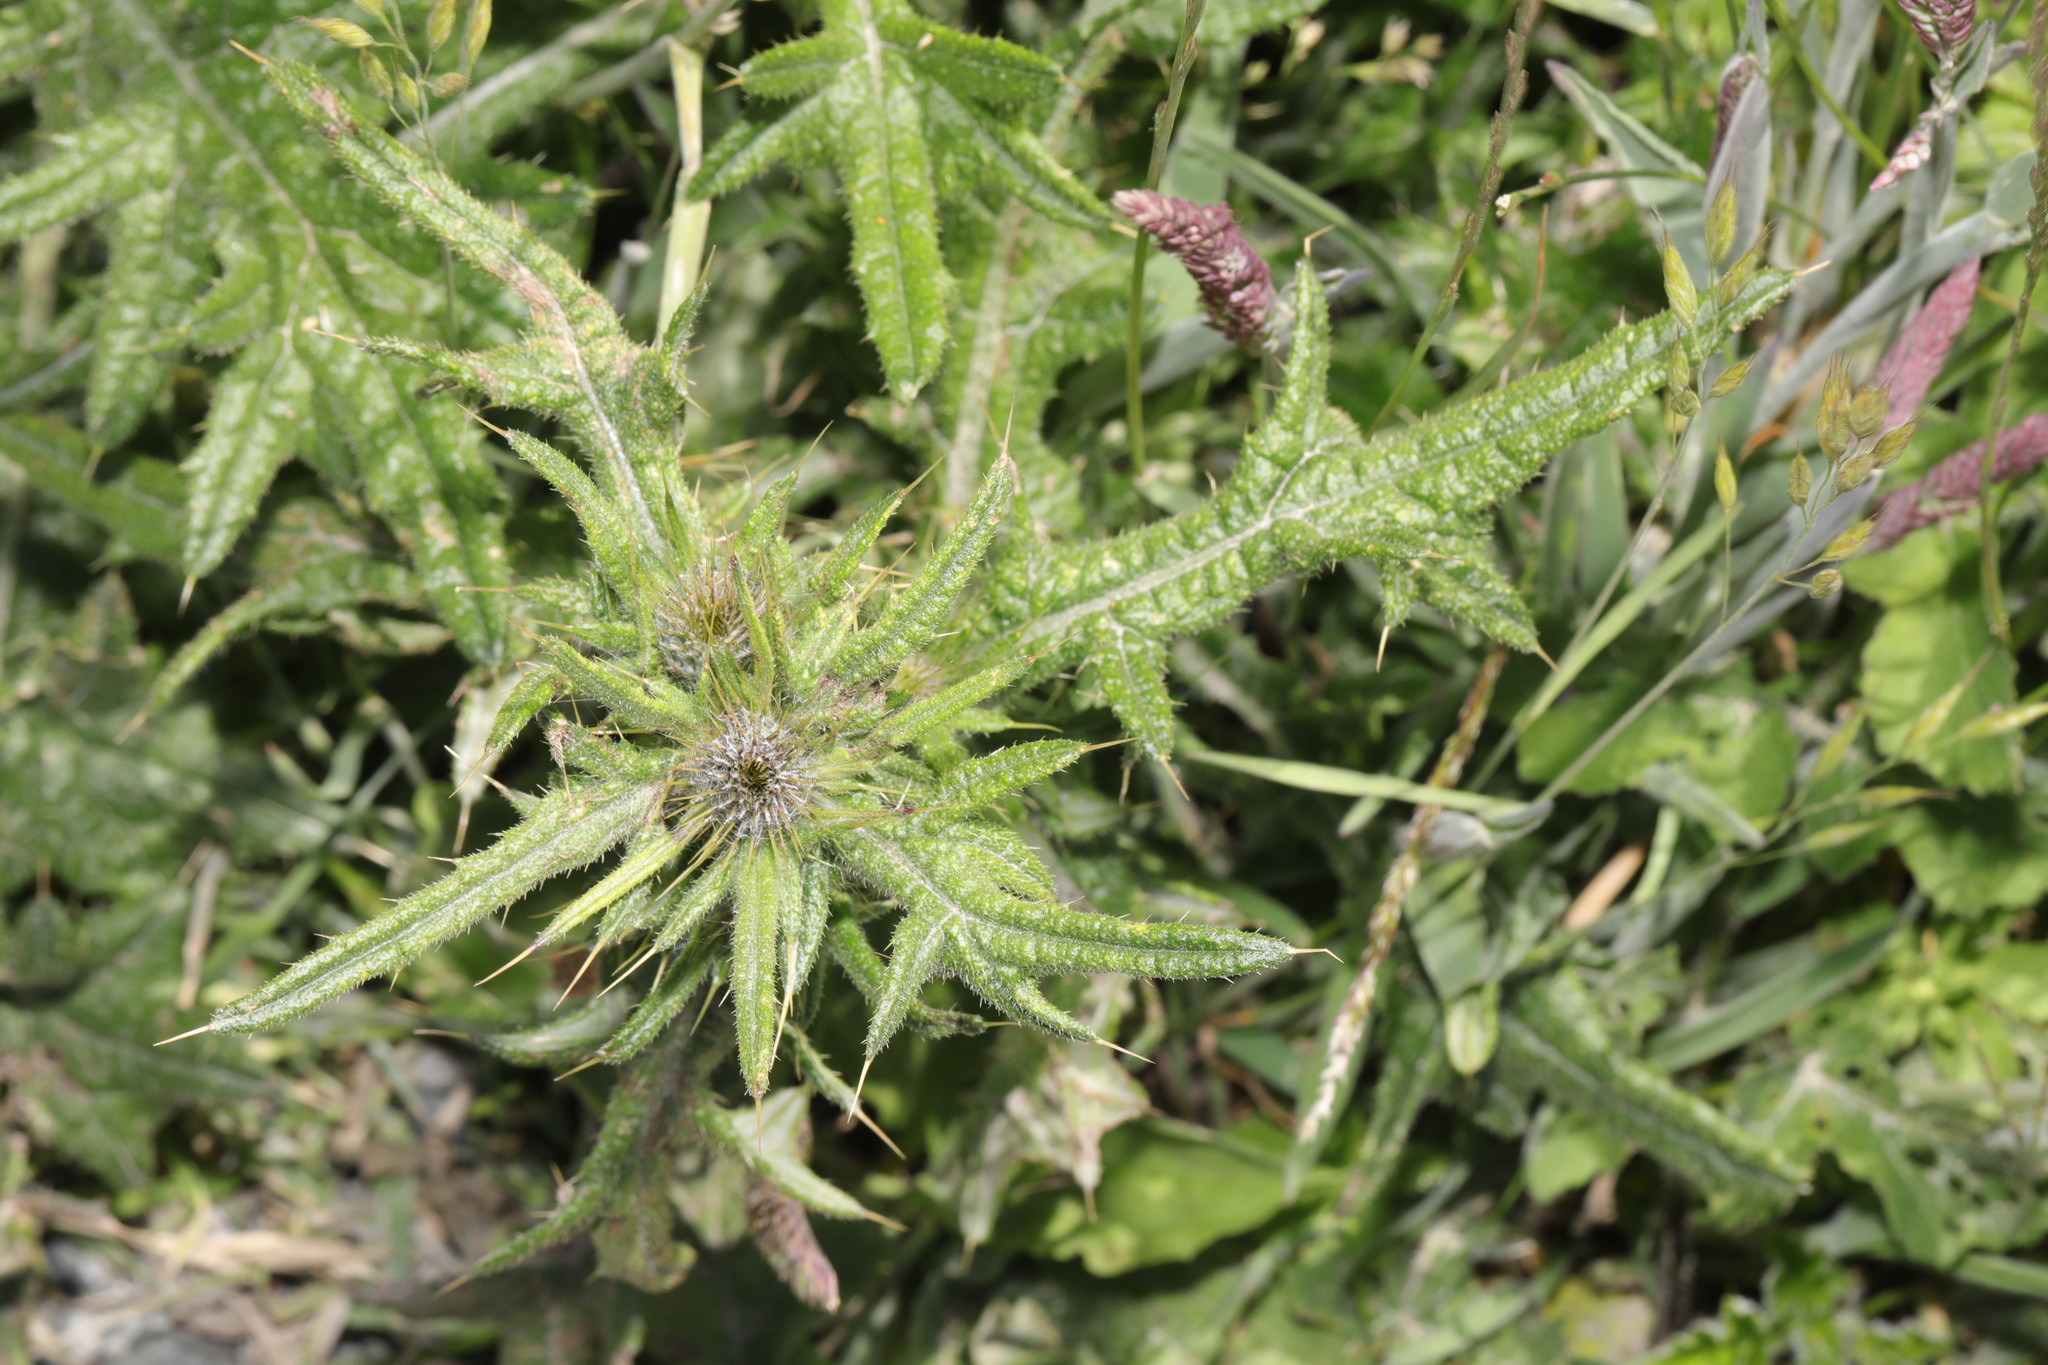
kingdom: Plantae
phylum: Tracheophyta
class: Magnoliopsida
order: Asterales
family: Asteraceae
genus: Cirsium
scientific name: Cirsium vulgare
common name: Bull thistle
